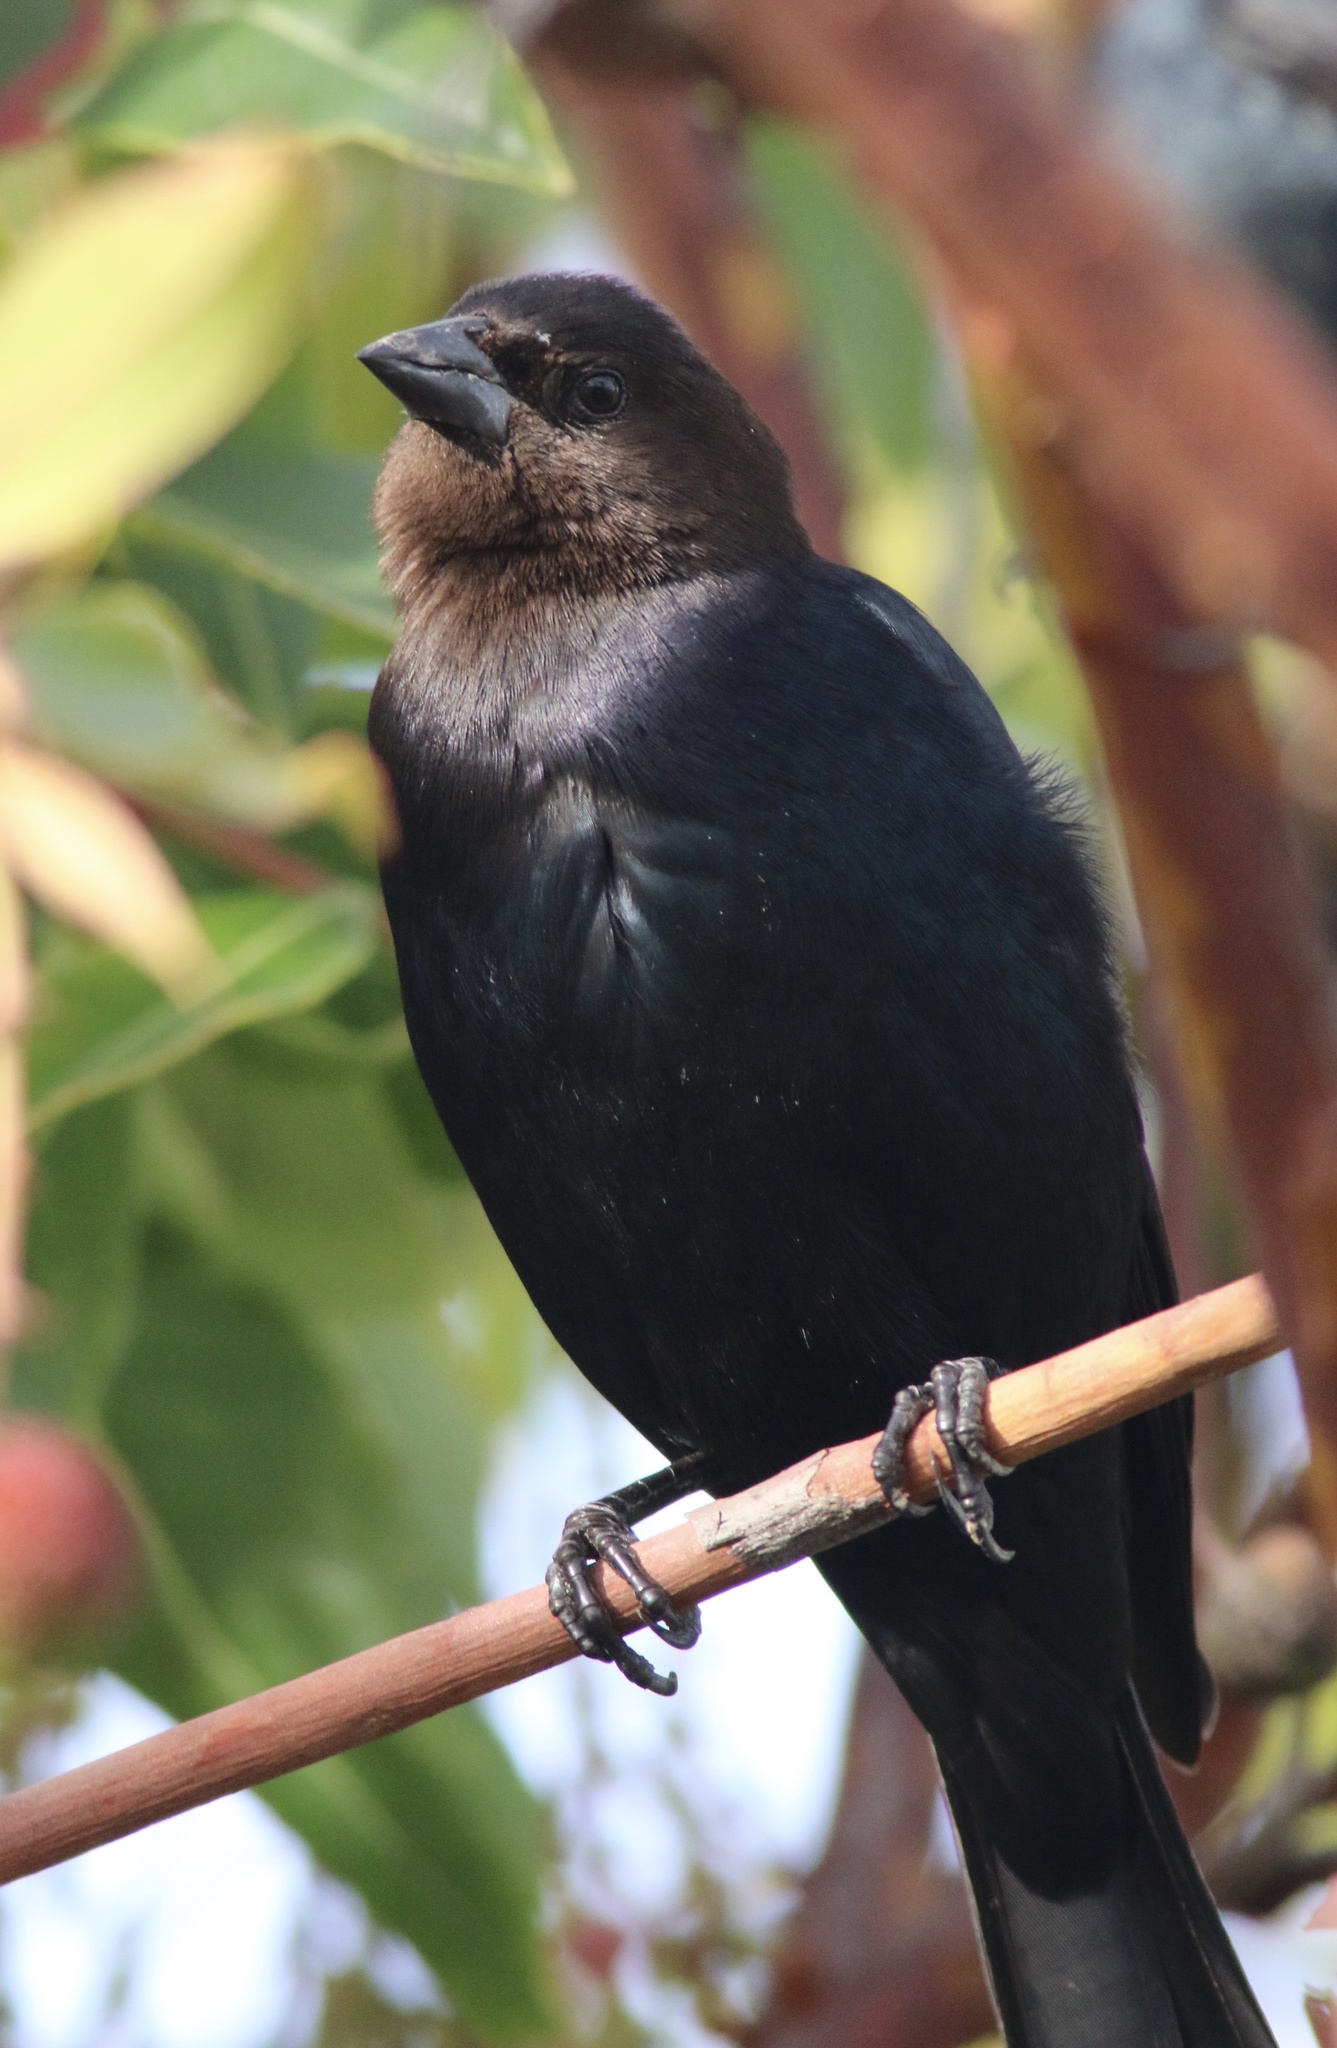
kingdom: Animalia
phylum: Chordata
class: Aves
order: Passeriformes
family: Icteridae
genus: Molothrus
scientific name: Molothrus ater
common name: Brown-headed cowbird
